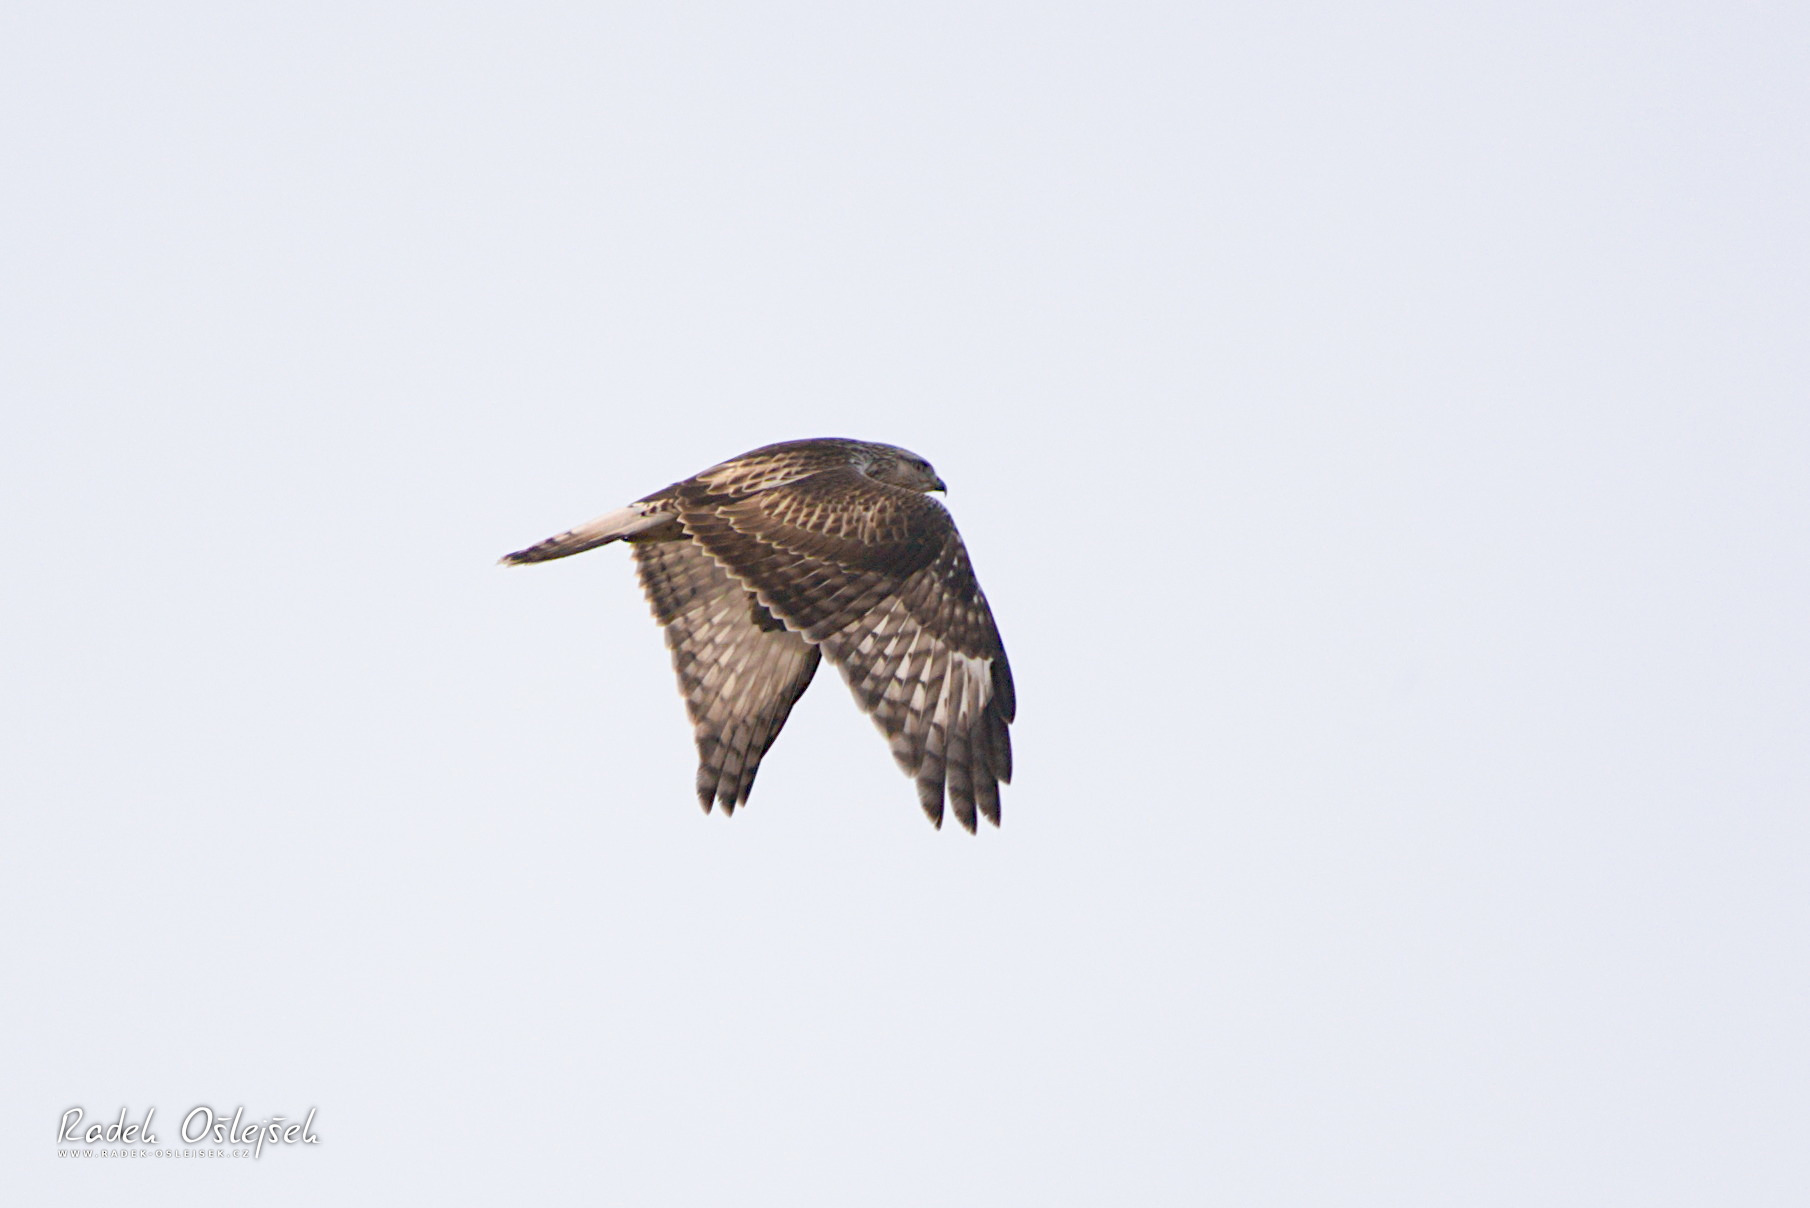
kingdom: Animalia
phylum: Chordata
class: Aves
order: Accipitriformes
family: Accipitridae
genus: Buteo
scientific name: Buteo lagopus
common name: Rough-legged buzzard
